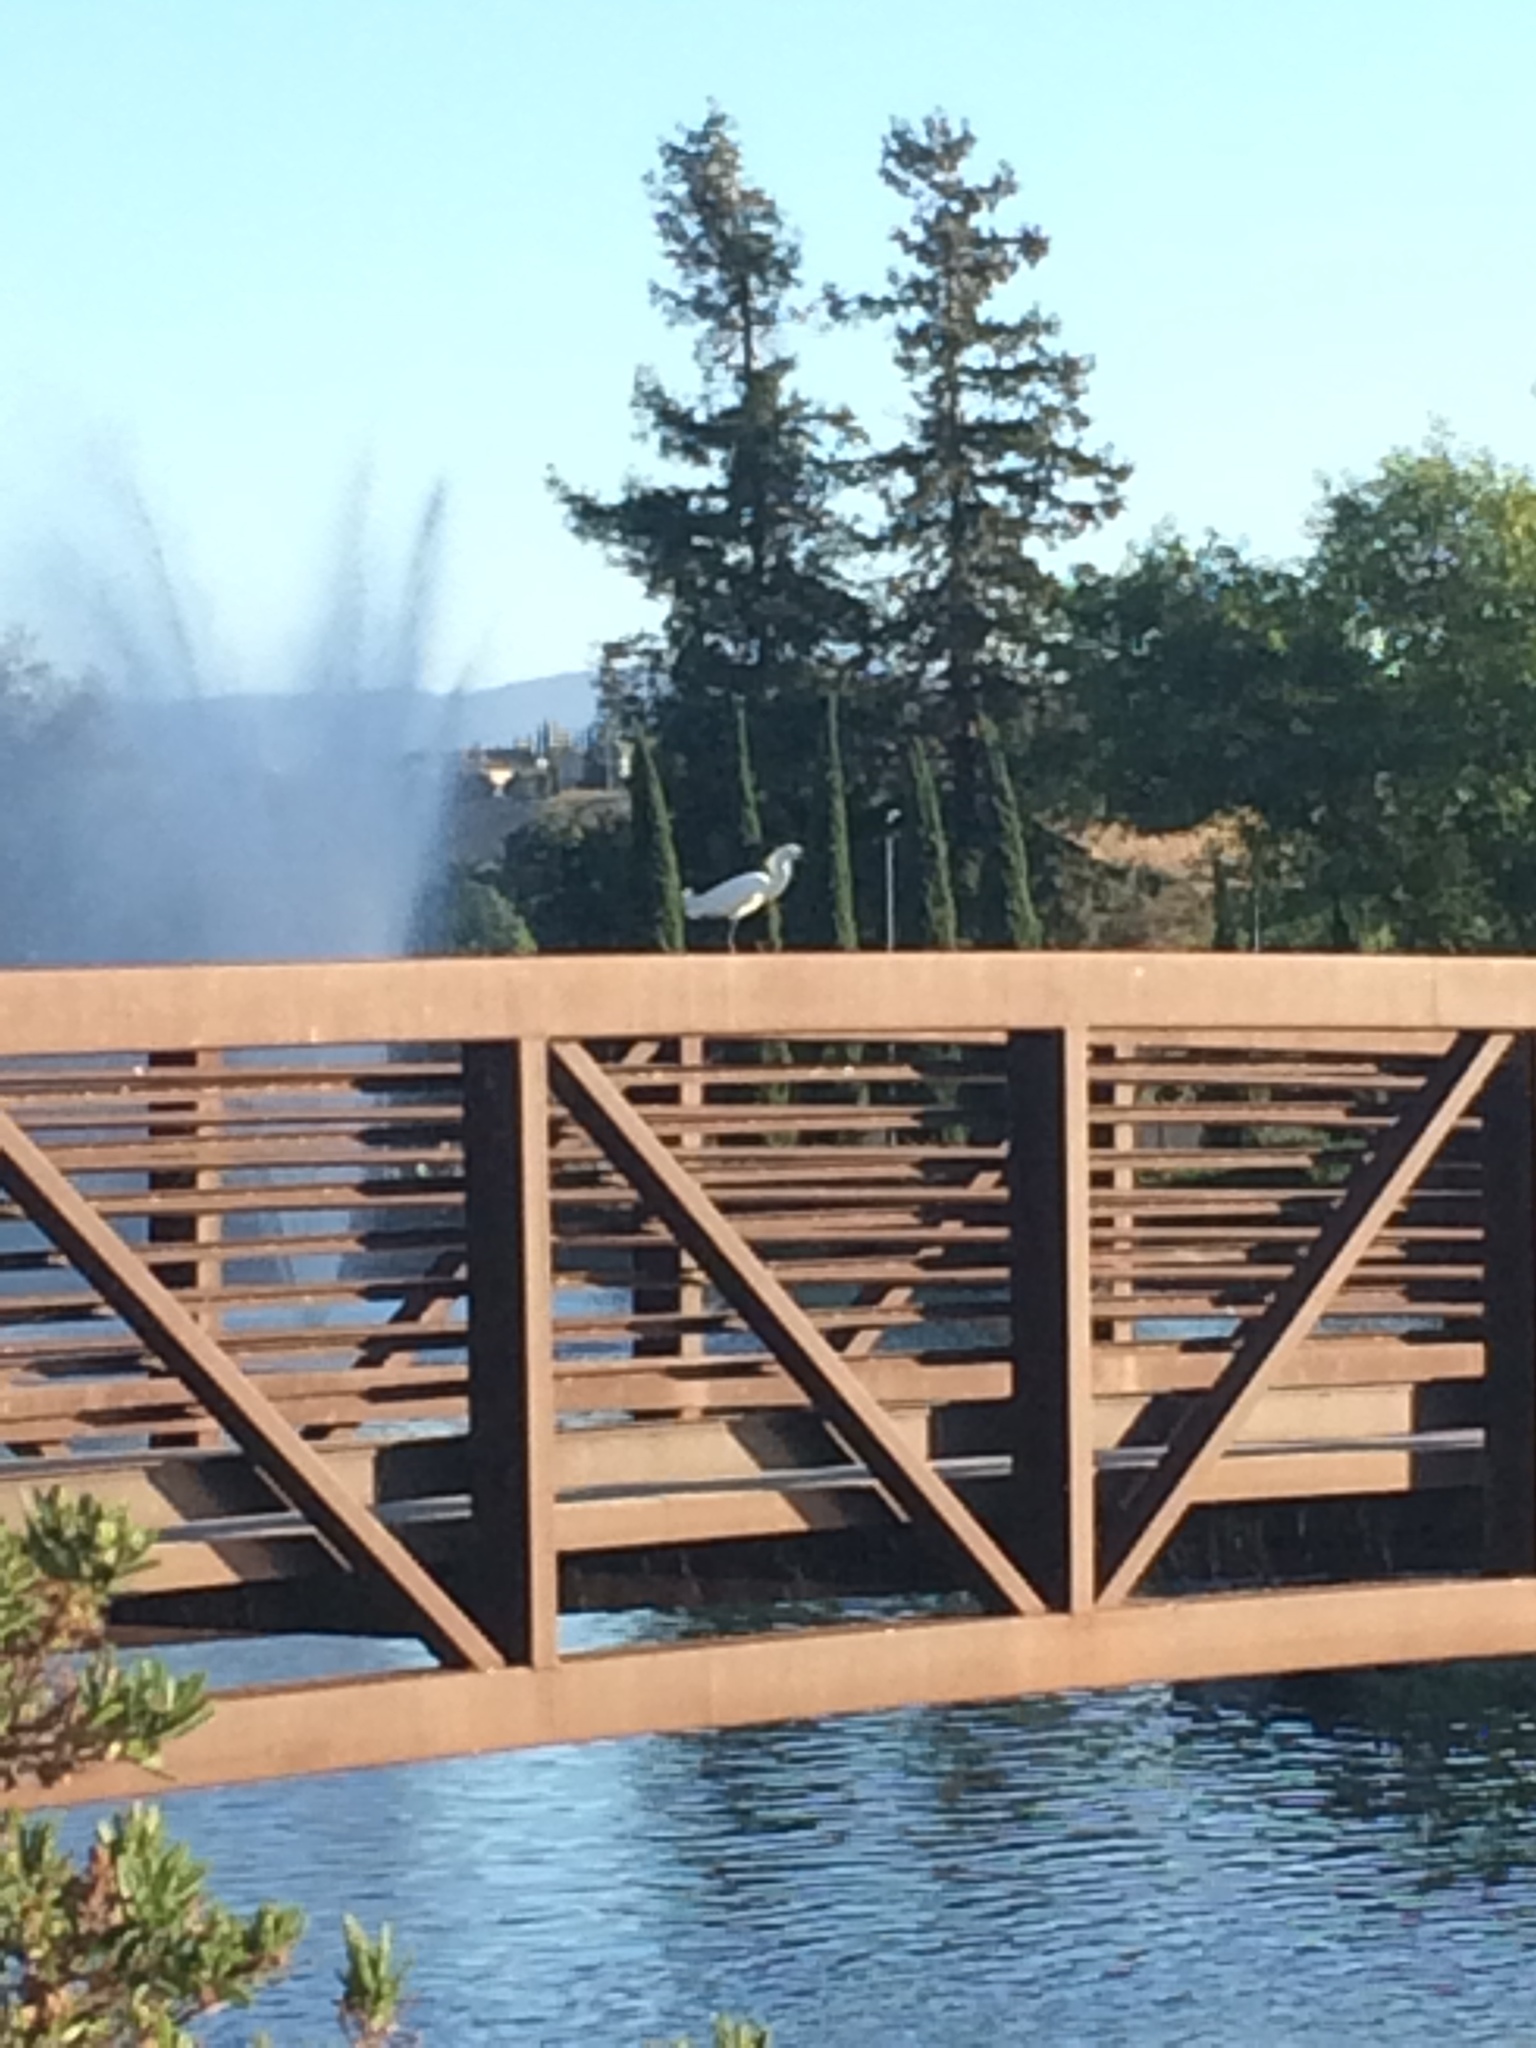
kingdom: Animalia
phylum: Chordata
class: Aves
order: Pelecaniformes
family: Ardeidae
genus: Egretta
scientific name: Egretta thula
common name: Snowy egret
